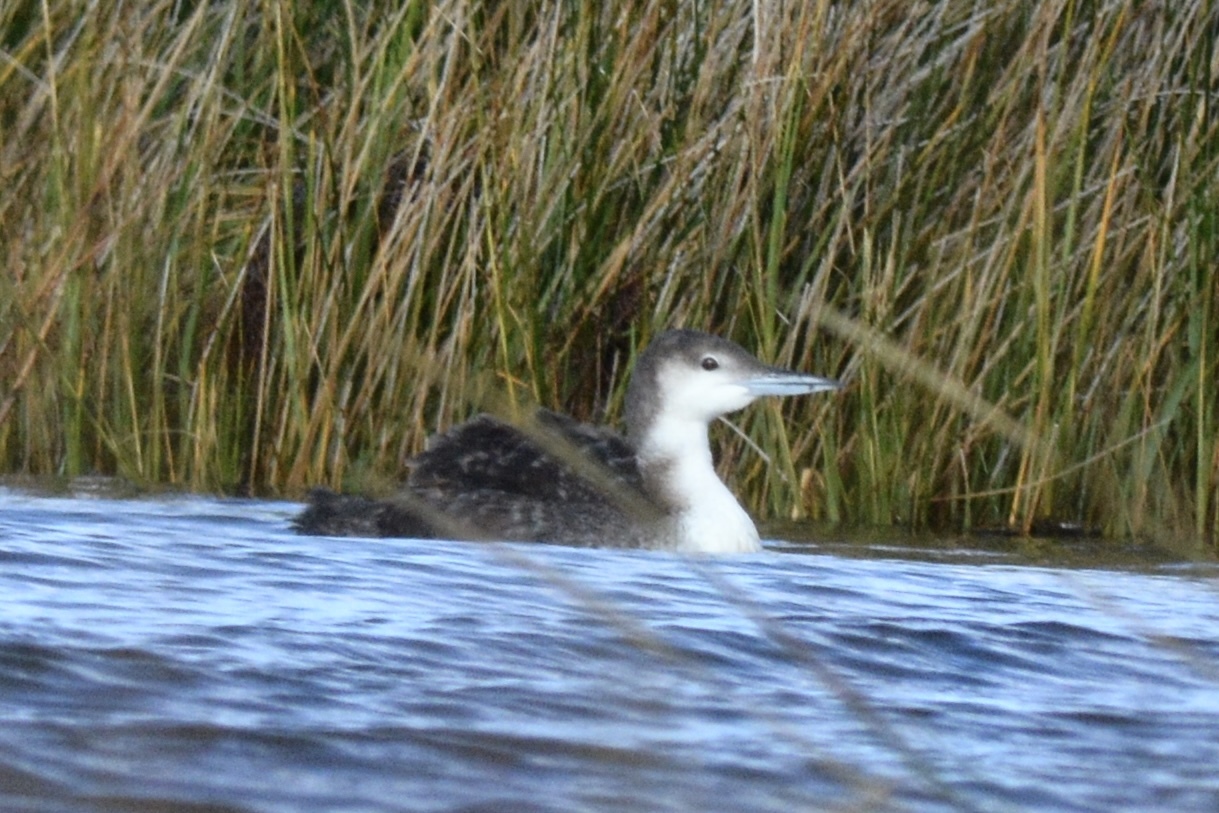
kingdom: Animalia
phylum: Chordata
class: Aves
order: Gaviiformes
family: Gaviidae
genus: Gavia
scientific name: Gavia immer
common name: Common loon
